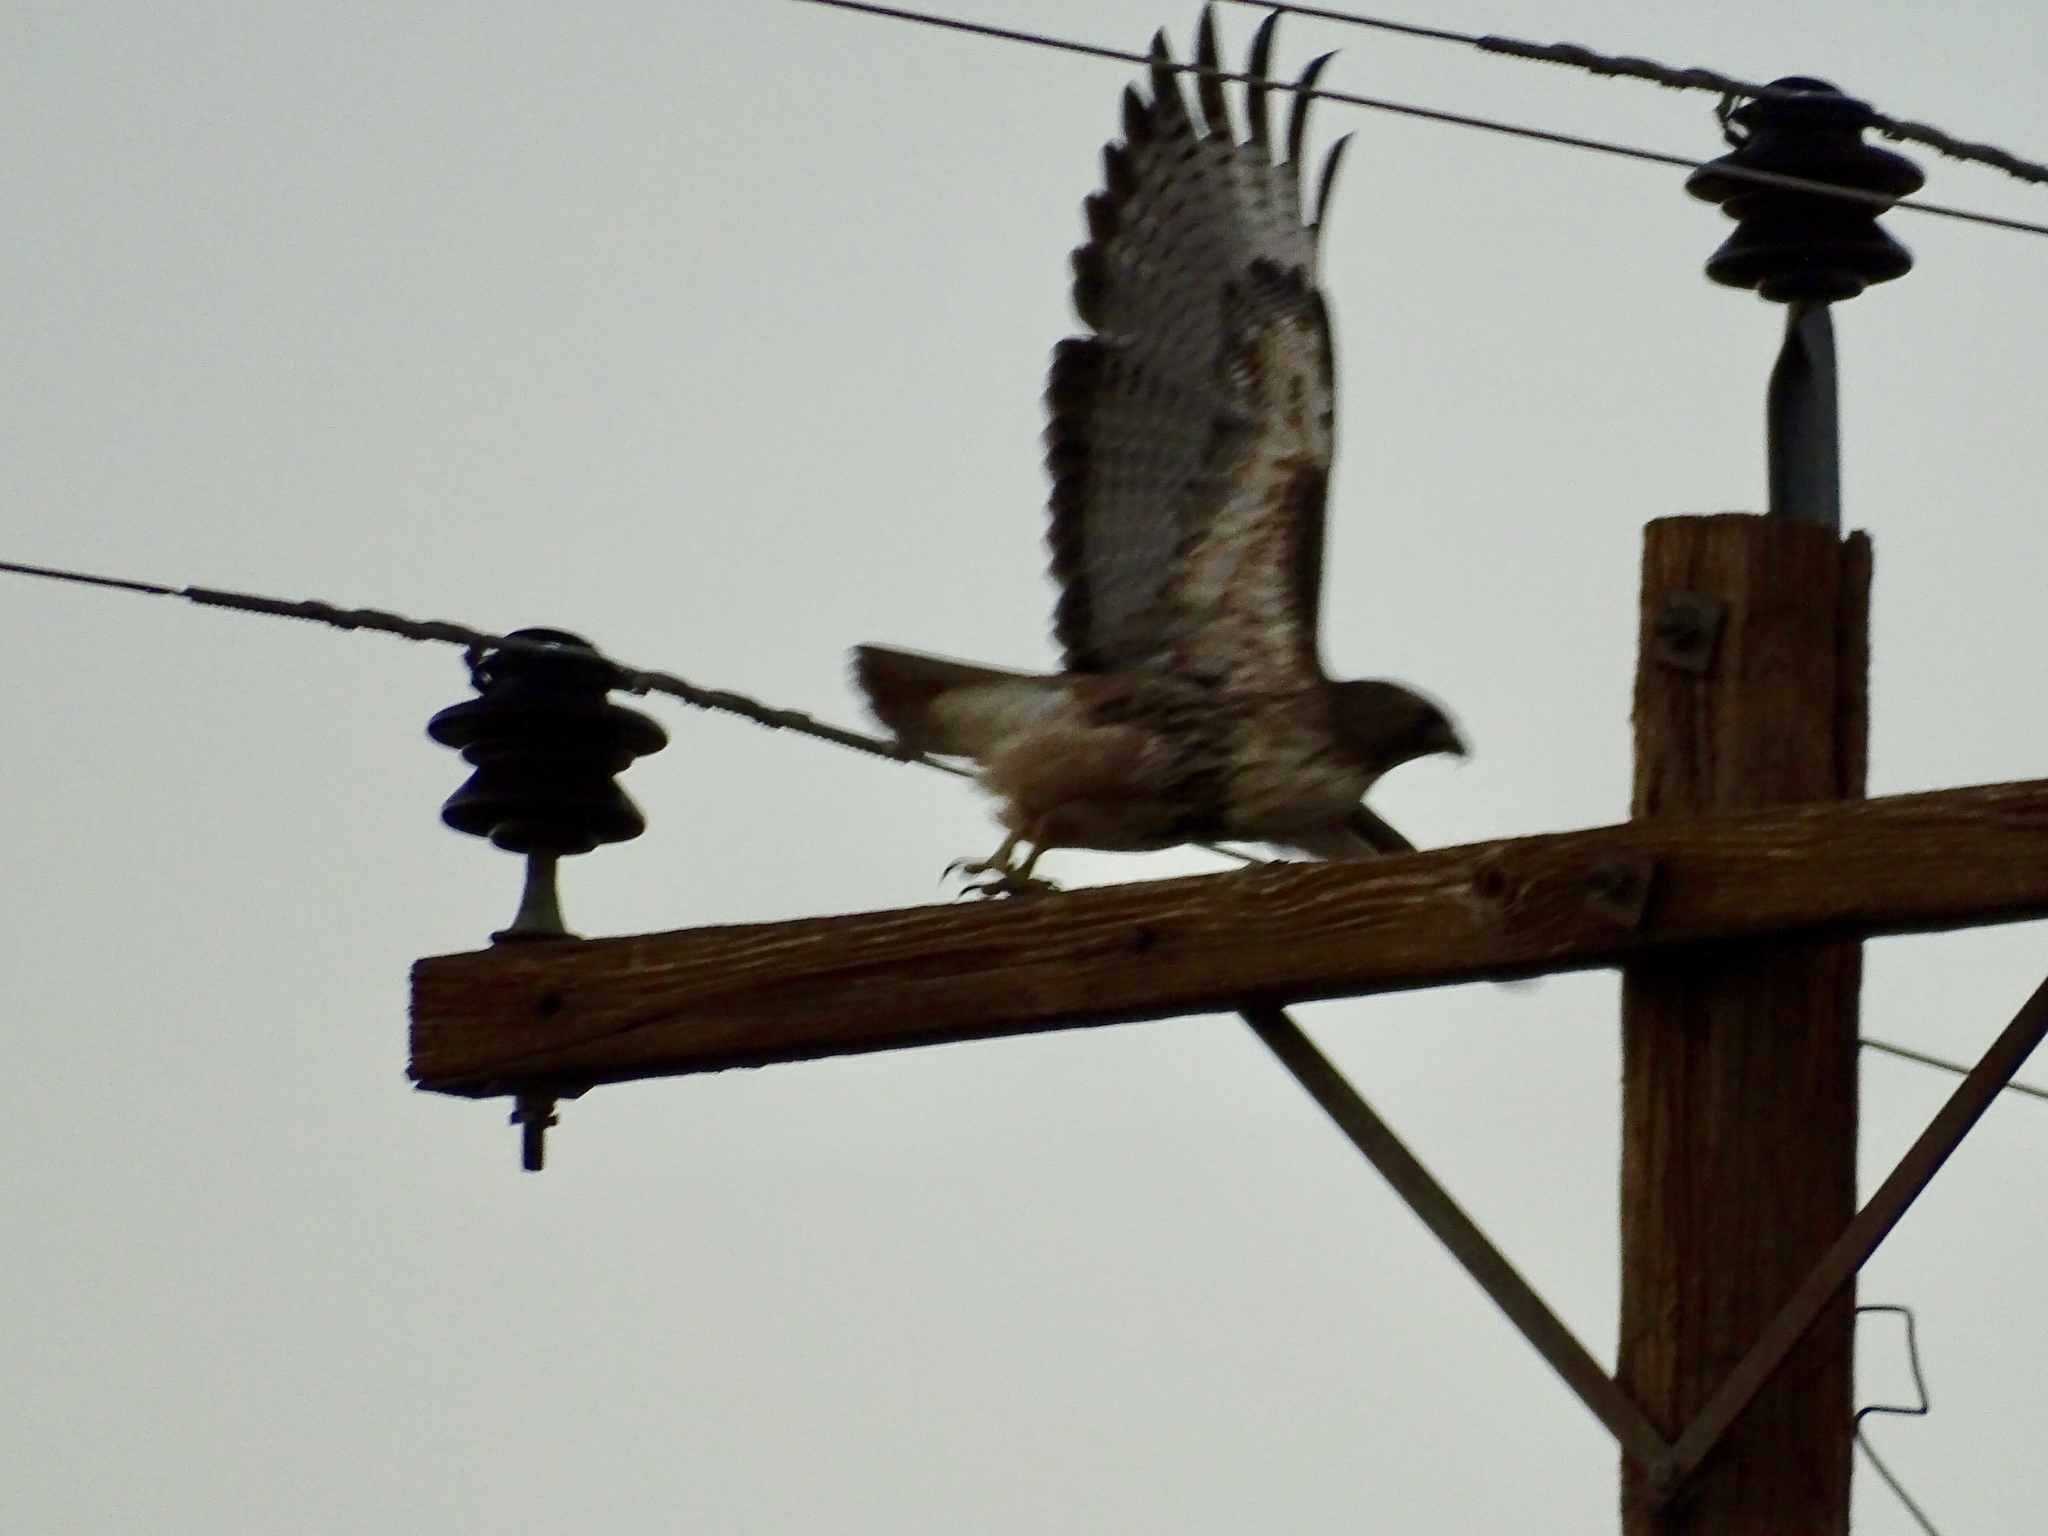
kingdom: Animalia
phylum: Chordata
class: Aves
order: Accipitriformes
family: Accipitridae
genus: Buteo
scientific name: Buteo jamaicensis
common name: Red-tailed hawk
